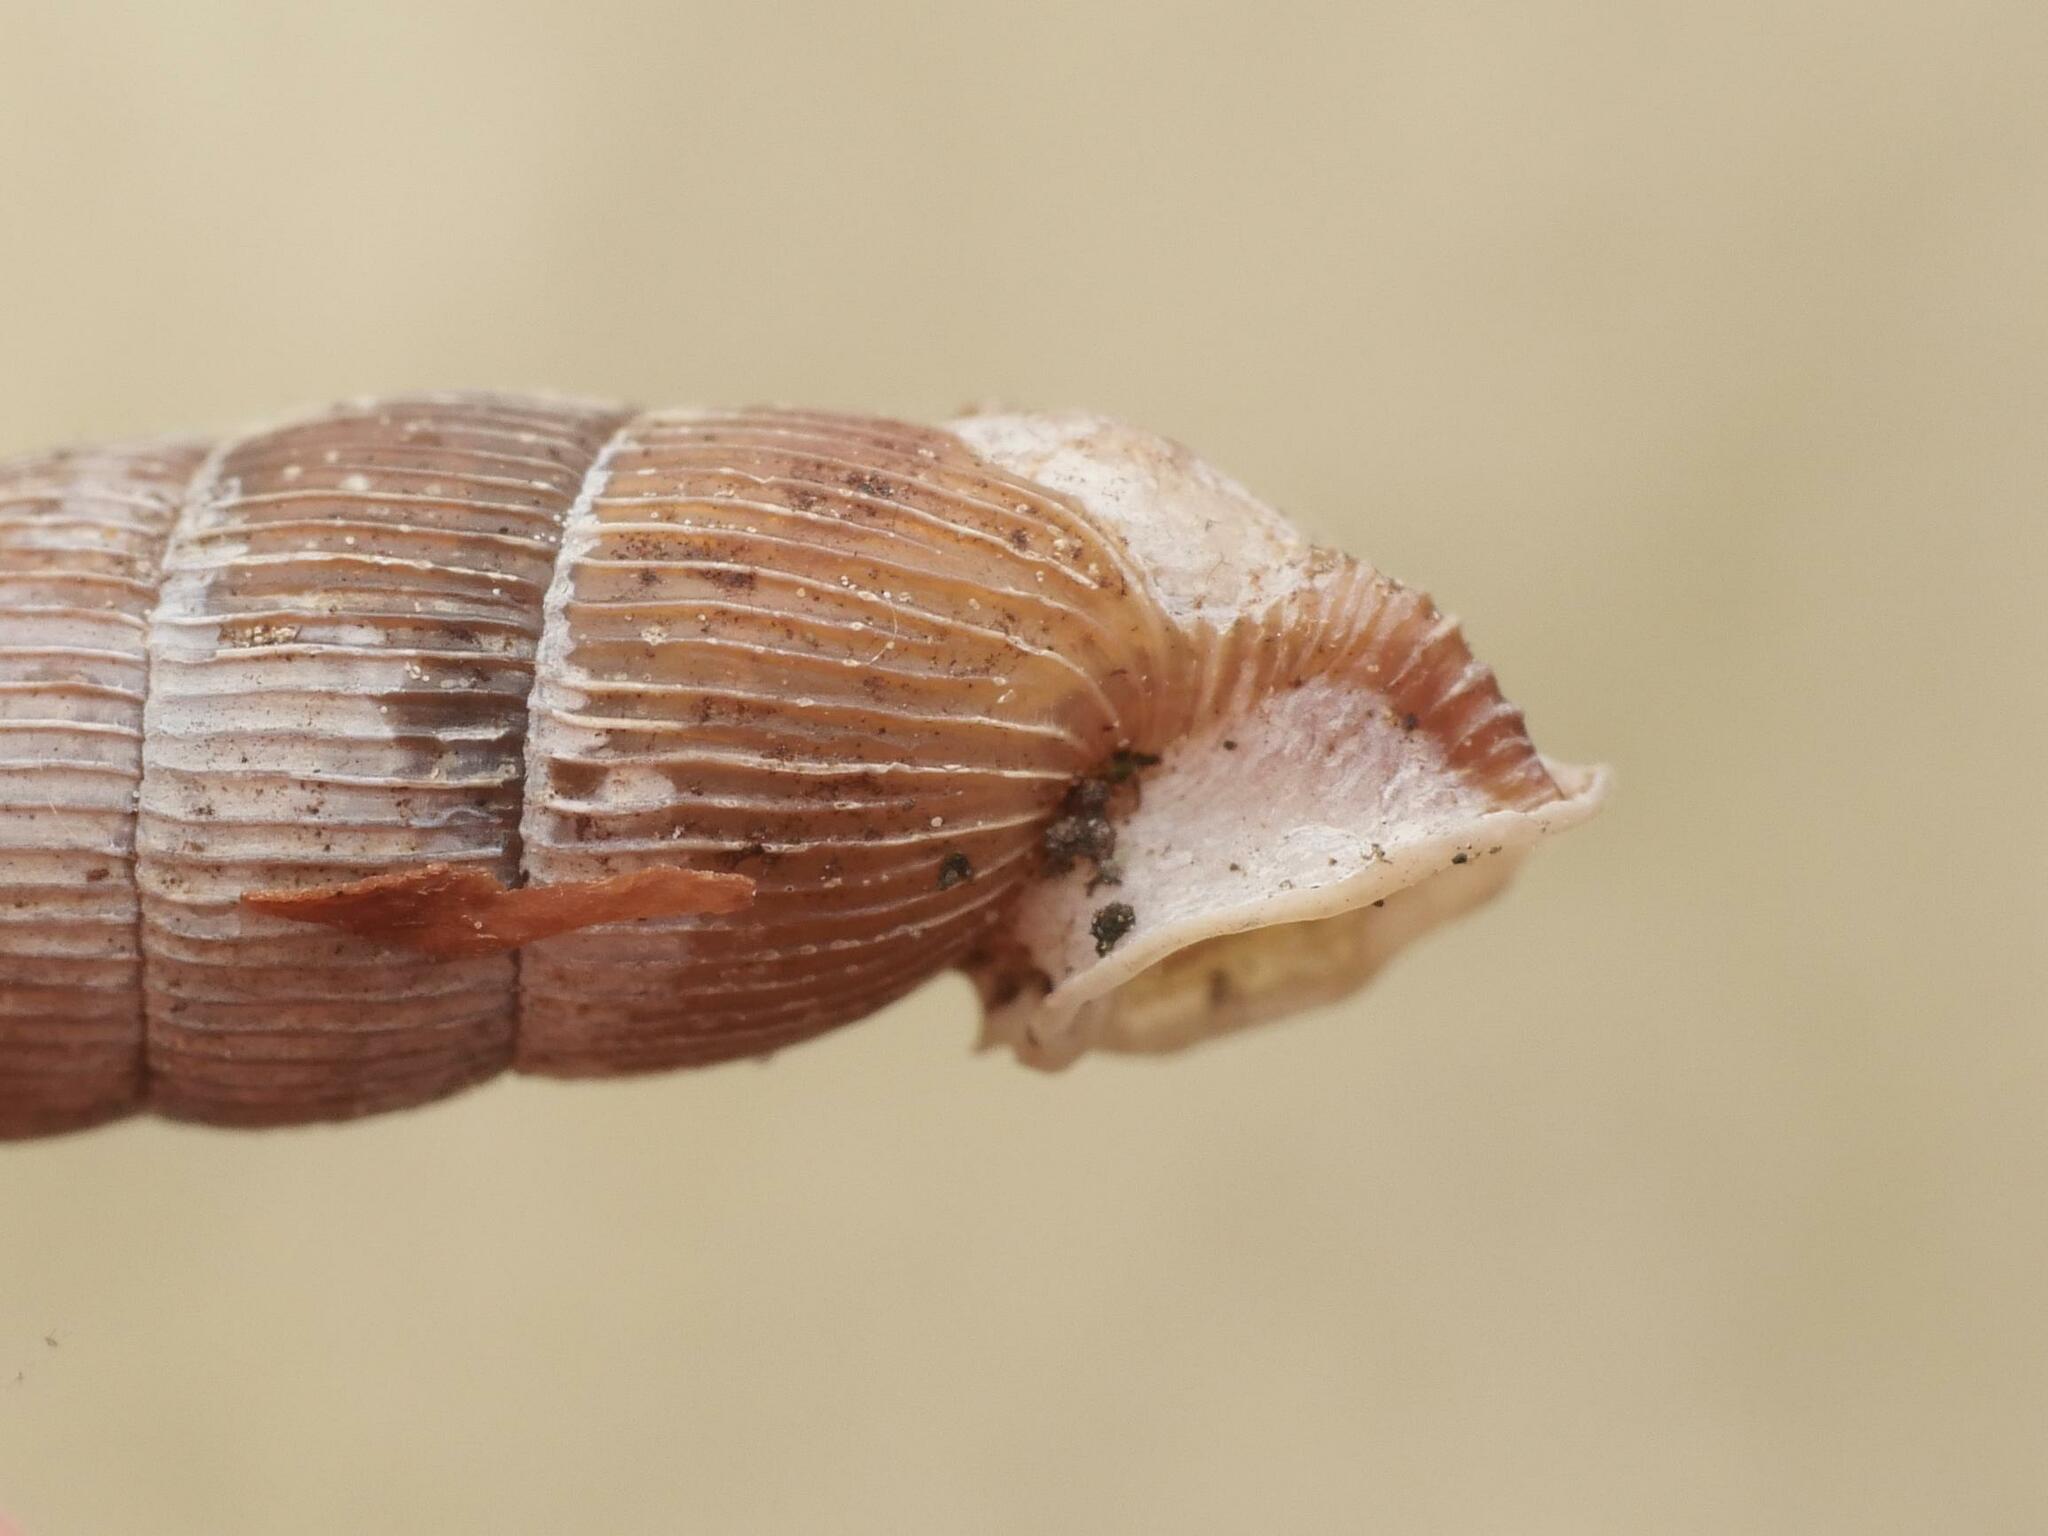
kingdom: Animalia
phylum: Mollusca
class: Gastropoda
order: Stylommatophora
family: Clausiliidae
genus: Alinda
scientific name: Alinda biplicata
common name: Thames door snail
